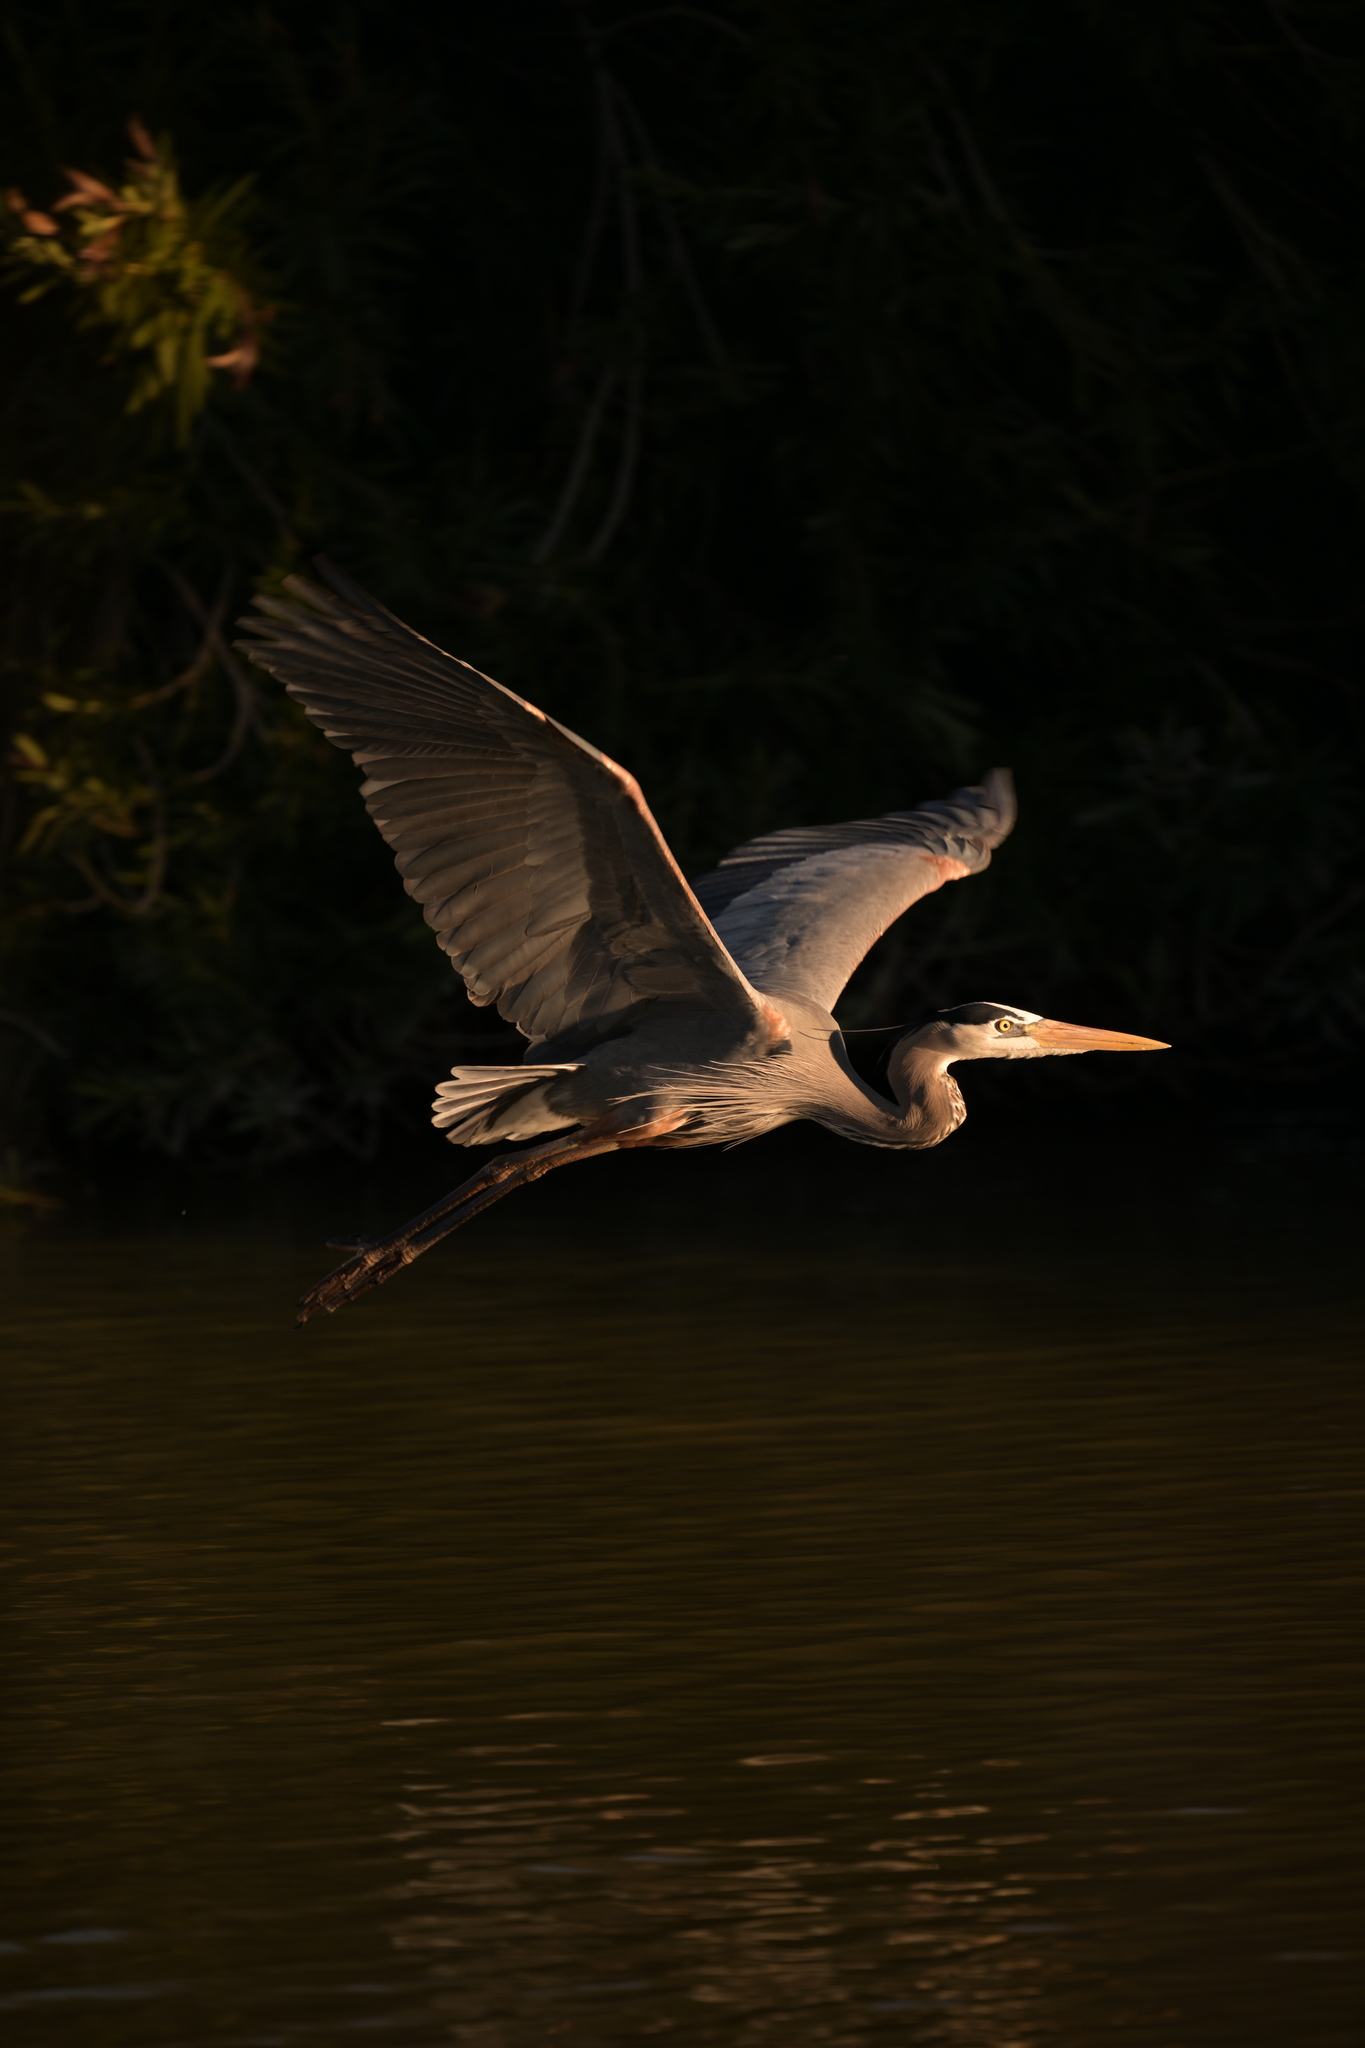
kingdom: Animalia
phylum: Chordata
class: Aves
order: Pelecaniformes
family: Ardeidae
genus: Ardea
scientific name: Ardea herodias
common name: Great blue heron
